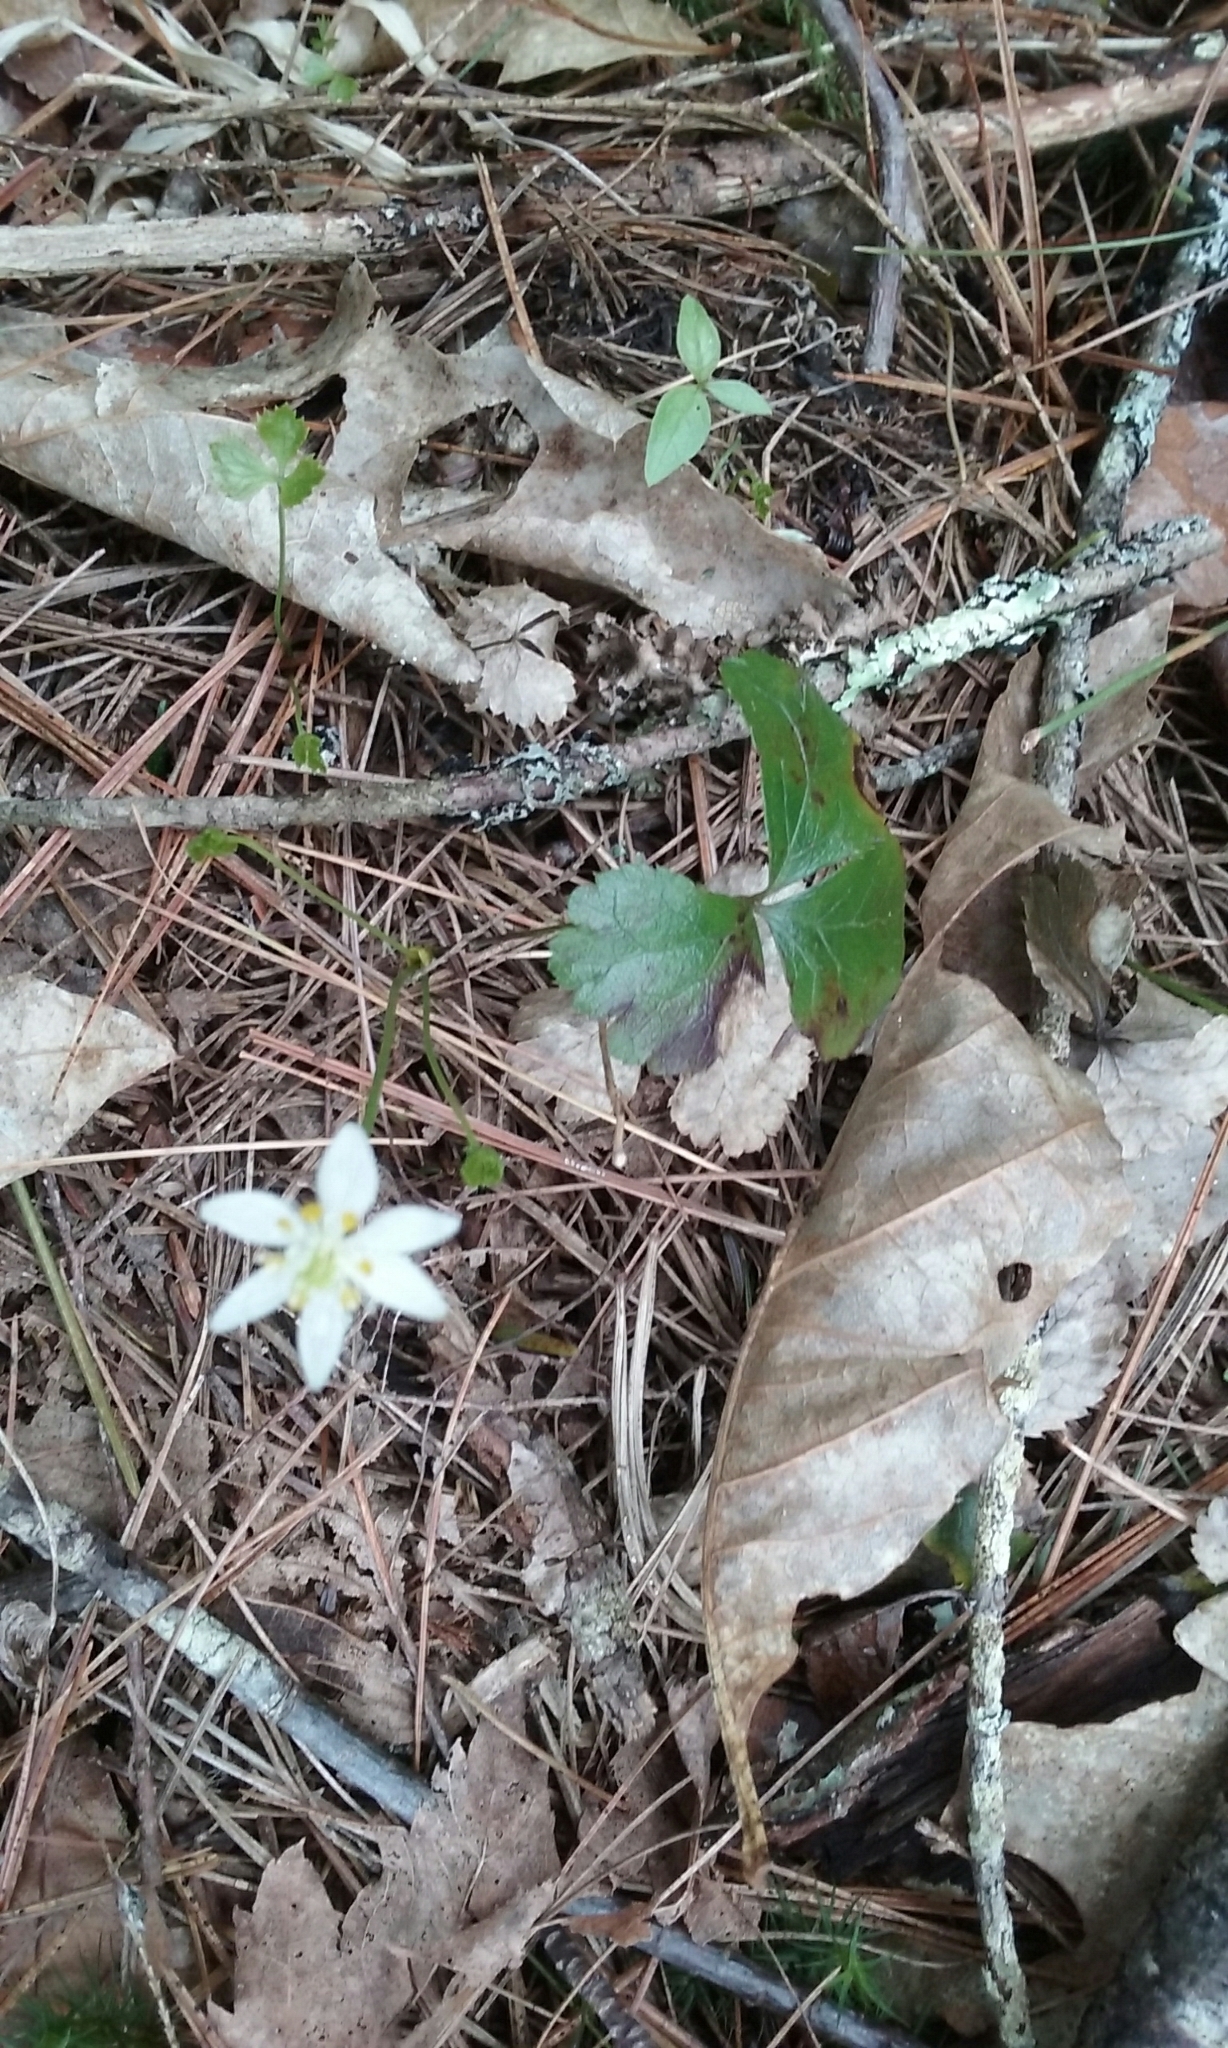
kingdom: Plantae
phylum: Tracheophyta
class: Magnoliopsida
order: Ranunculales
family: Ranunculaceae
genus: Coptis
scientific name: Coptis trifolia
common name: Canker-root
